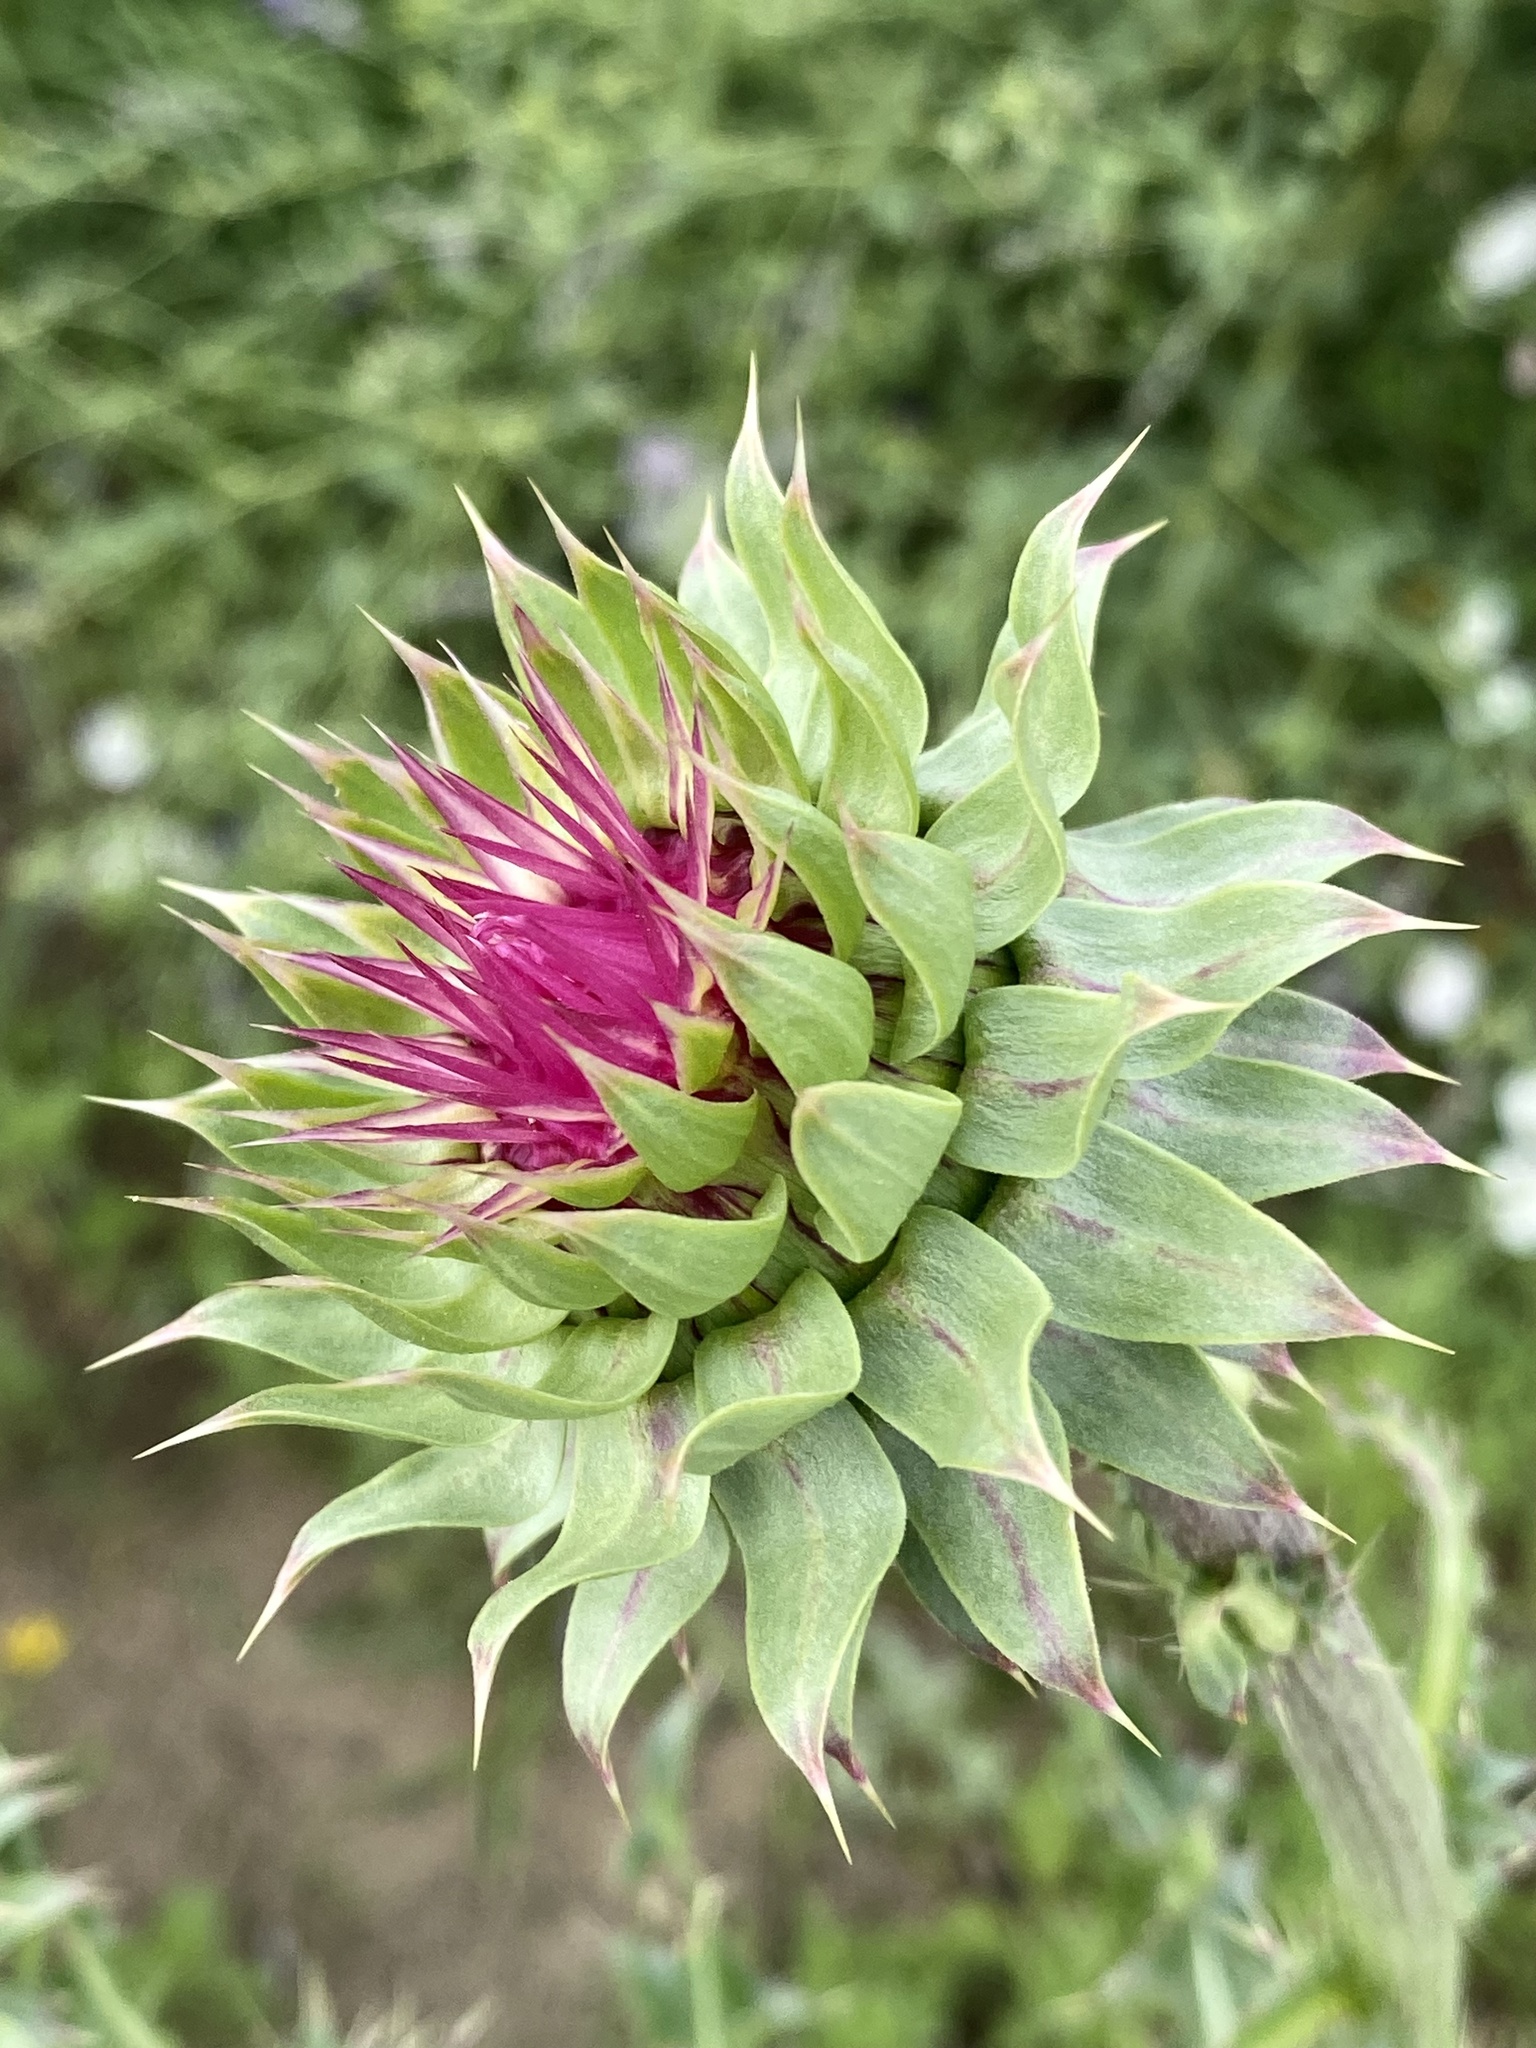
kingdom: Plantae
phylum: Tracheophyta
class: Magnoliopsida
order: Asterales
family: Asteraceae
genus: Carduus
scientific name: Carduus nutans
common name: Musk thistle
